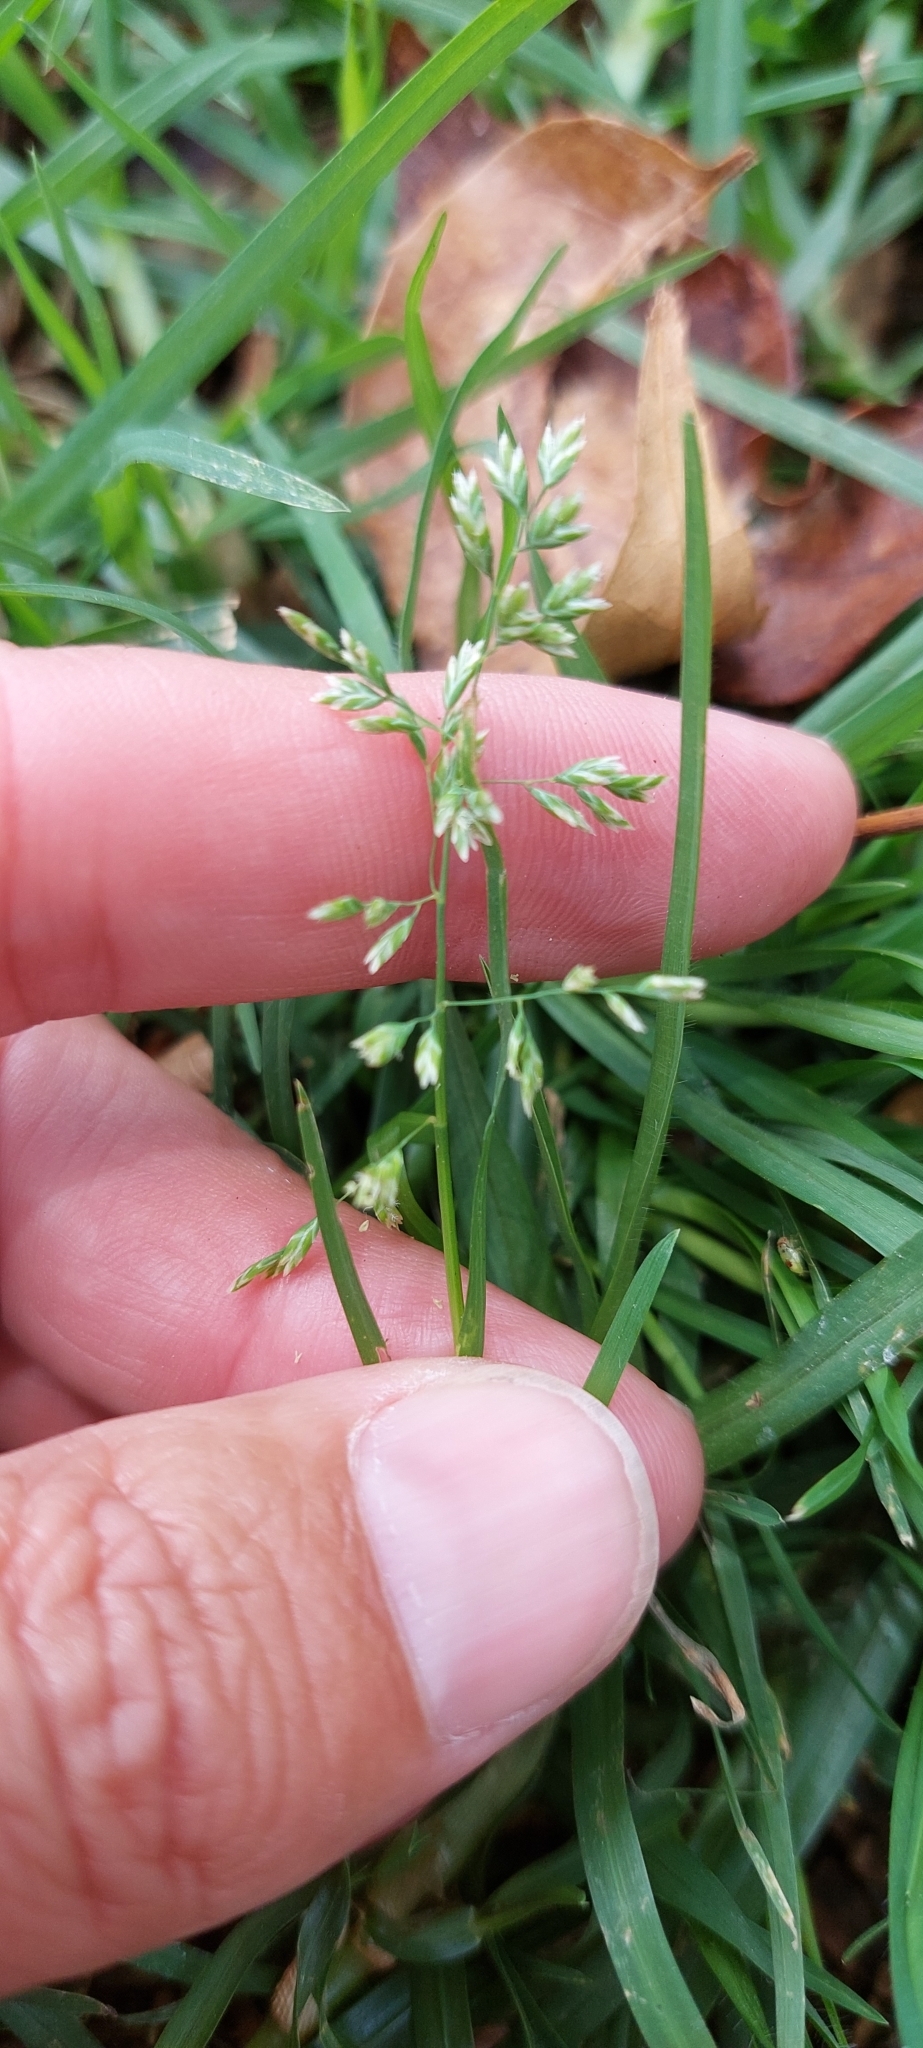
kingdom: Plantae
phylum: Tracheophyta
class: Liliopsida
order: Poales
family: Poaceae
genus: Poa
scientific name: Poa annua
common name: Annual bluegrass
